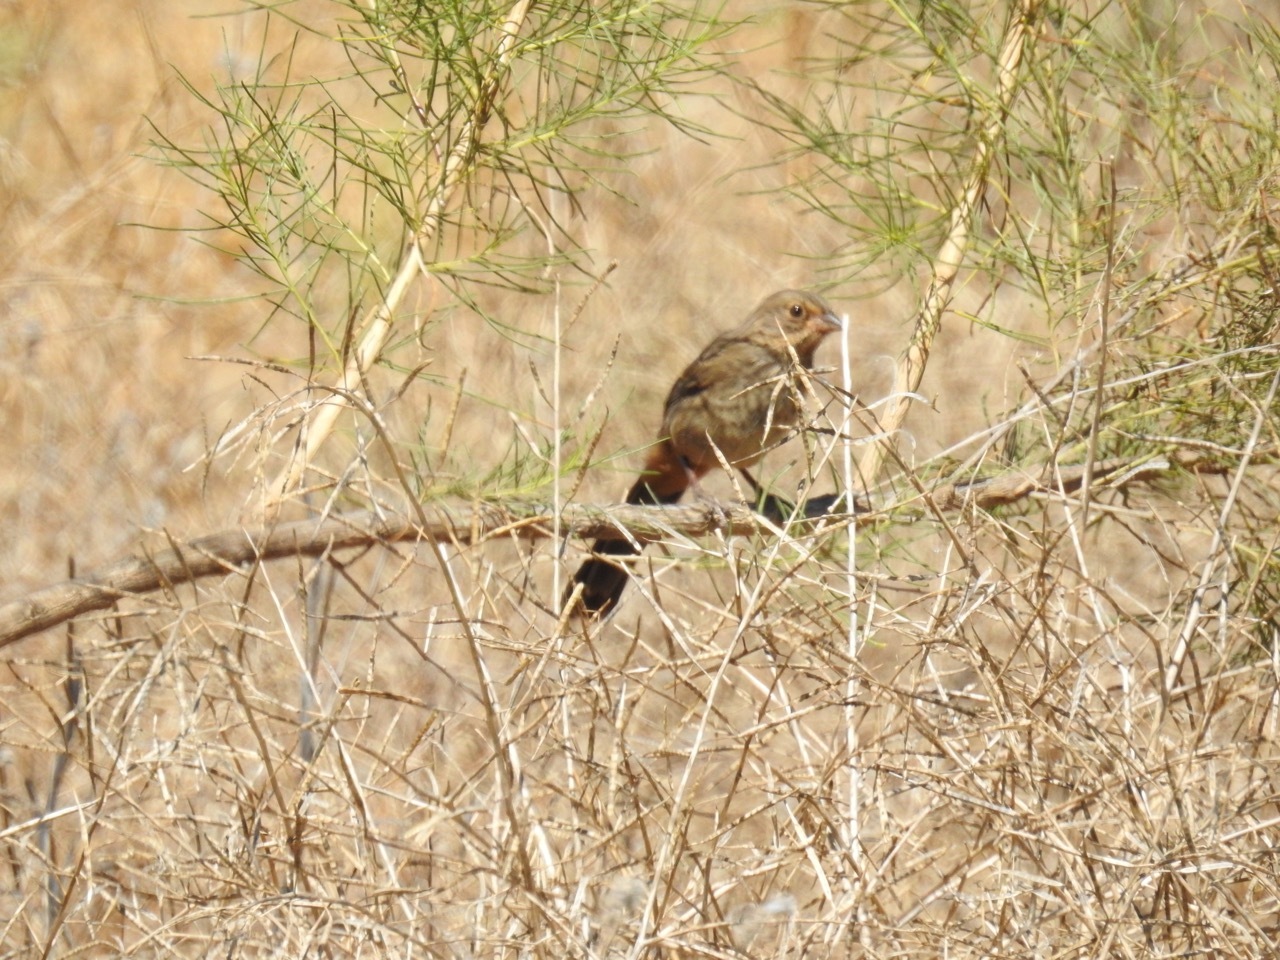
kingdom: Animalia
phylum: Chordata
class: Aves
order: Passeriformes
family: Passerellidae
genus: Melozone
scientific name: Melozone crissalis
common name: California towhee
